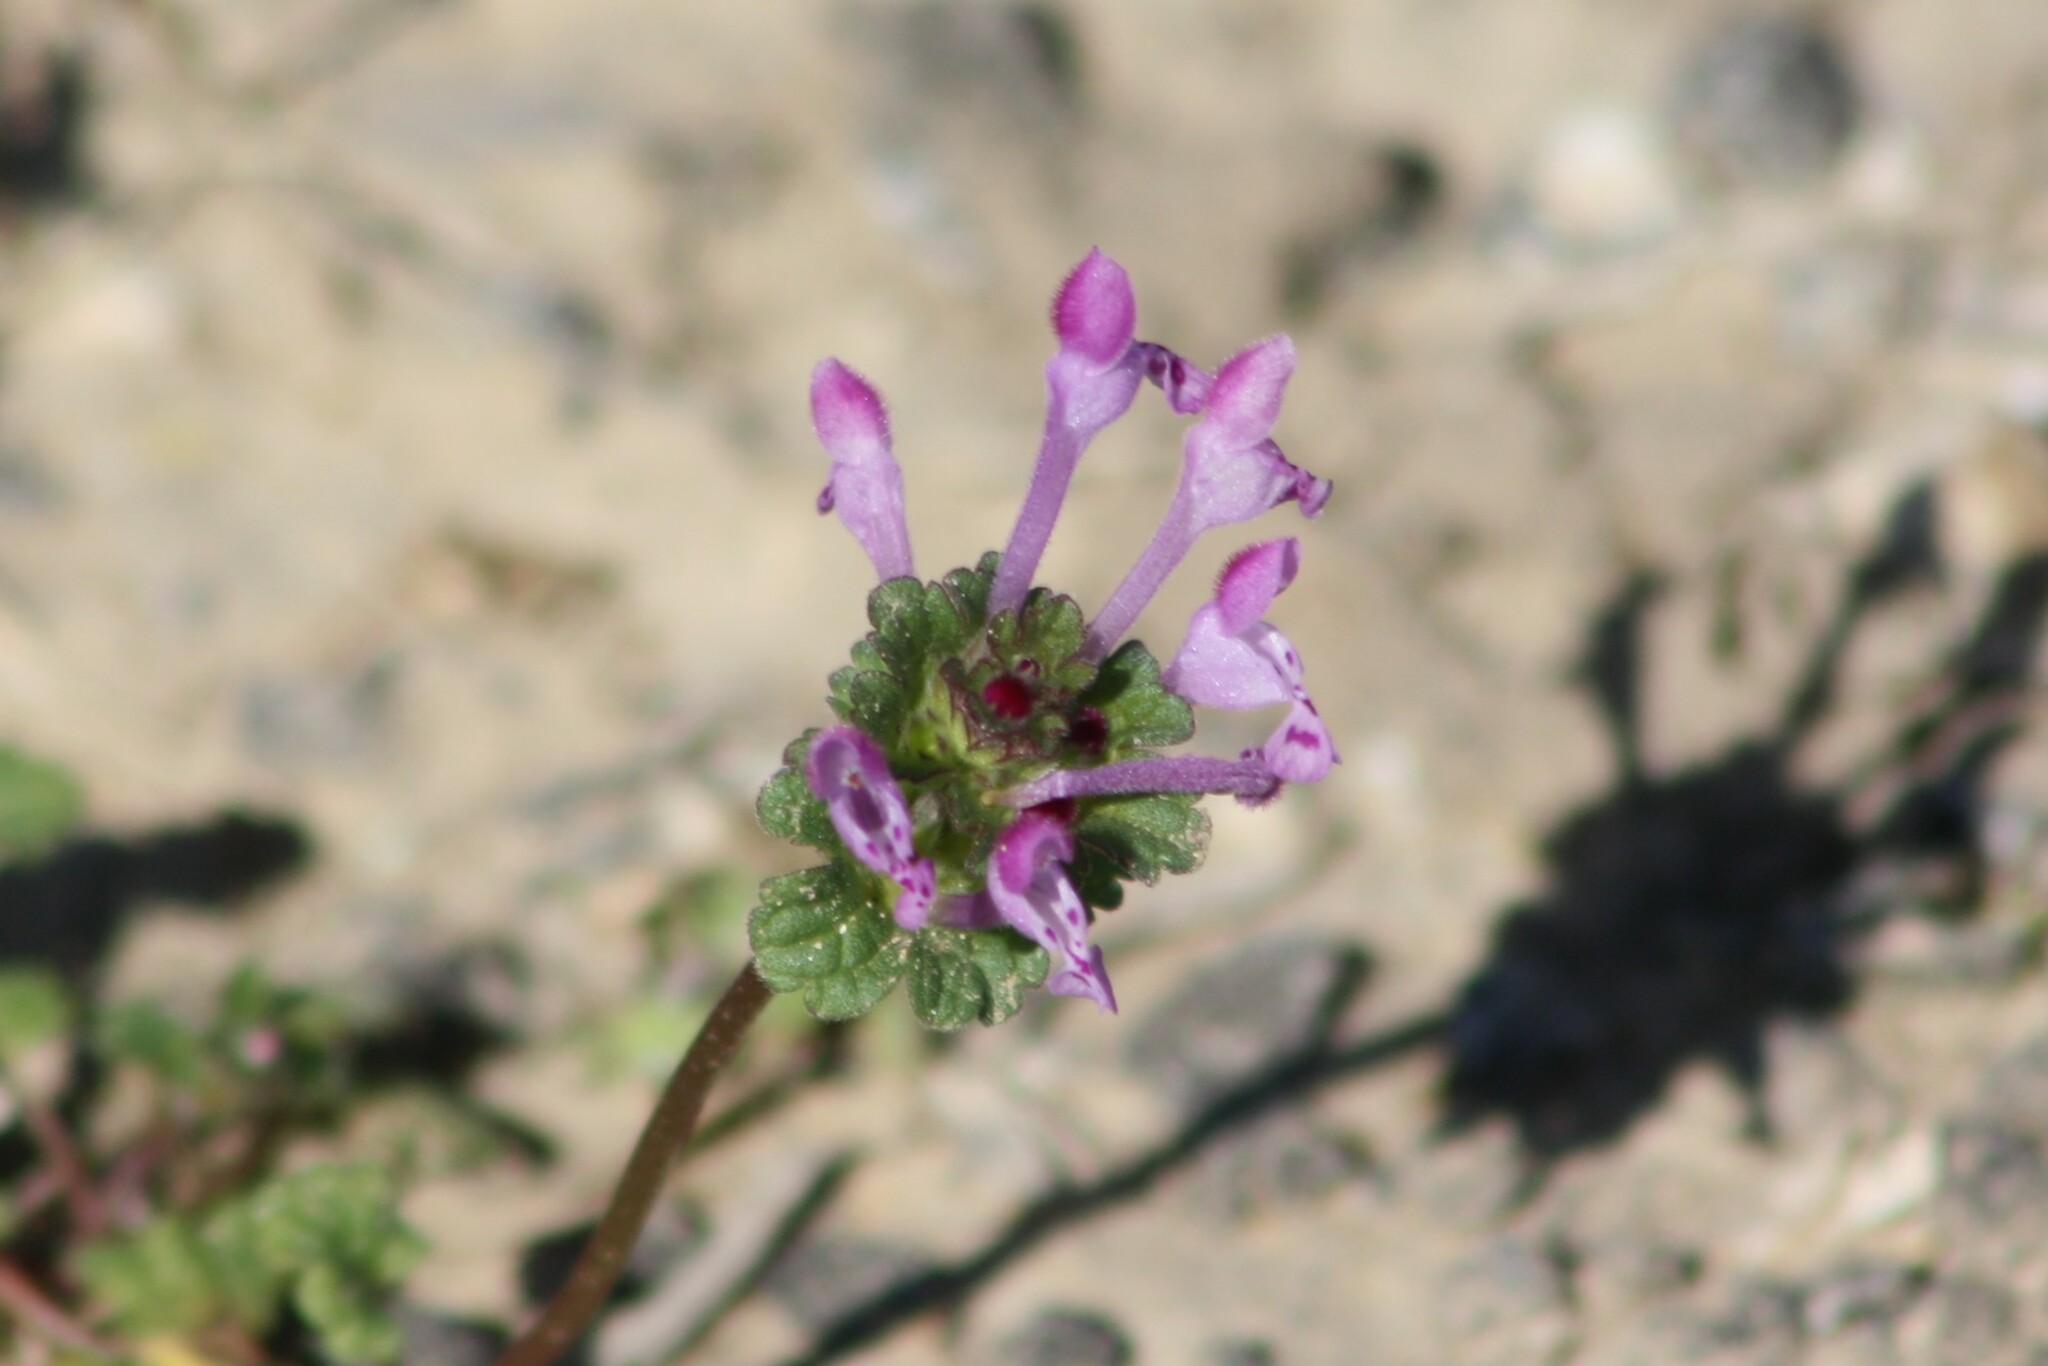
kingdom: Plantae
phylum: Tracheophyta
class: Magnoliopsida
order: Lamiales
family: Lamiaceae
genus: Lamium
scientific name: Lamium amplexicaule
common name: Henbit dead-nettle
